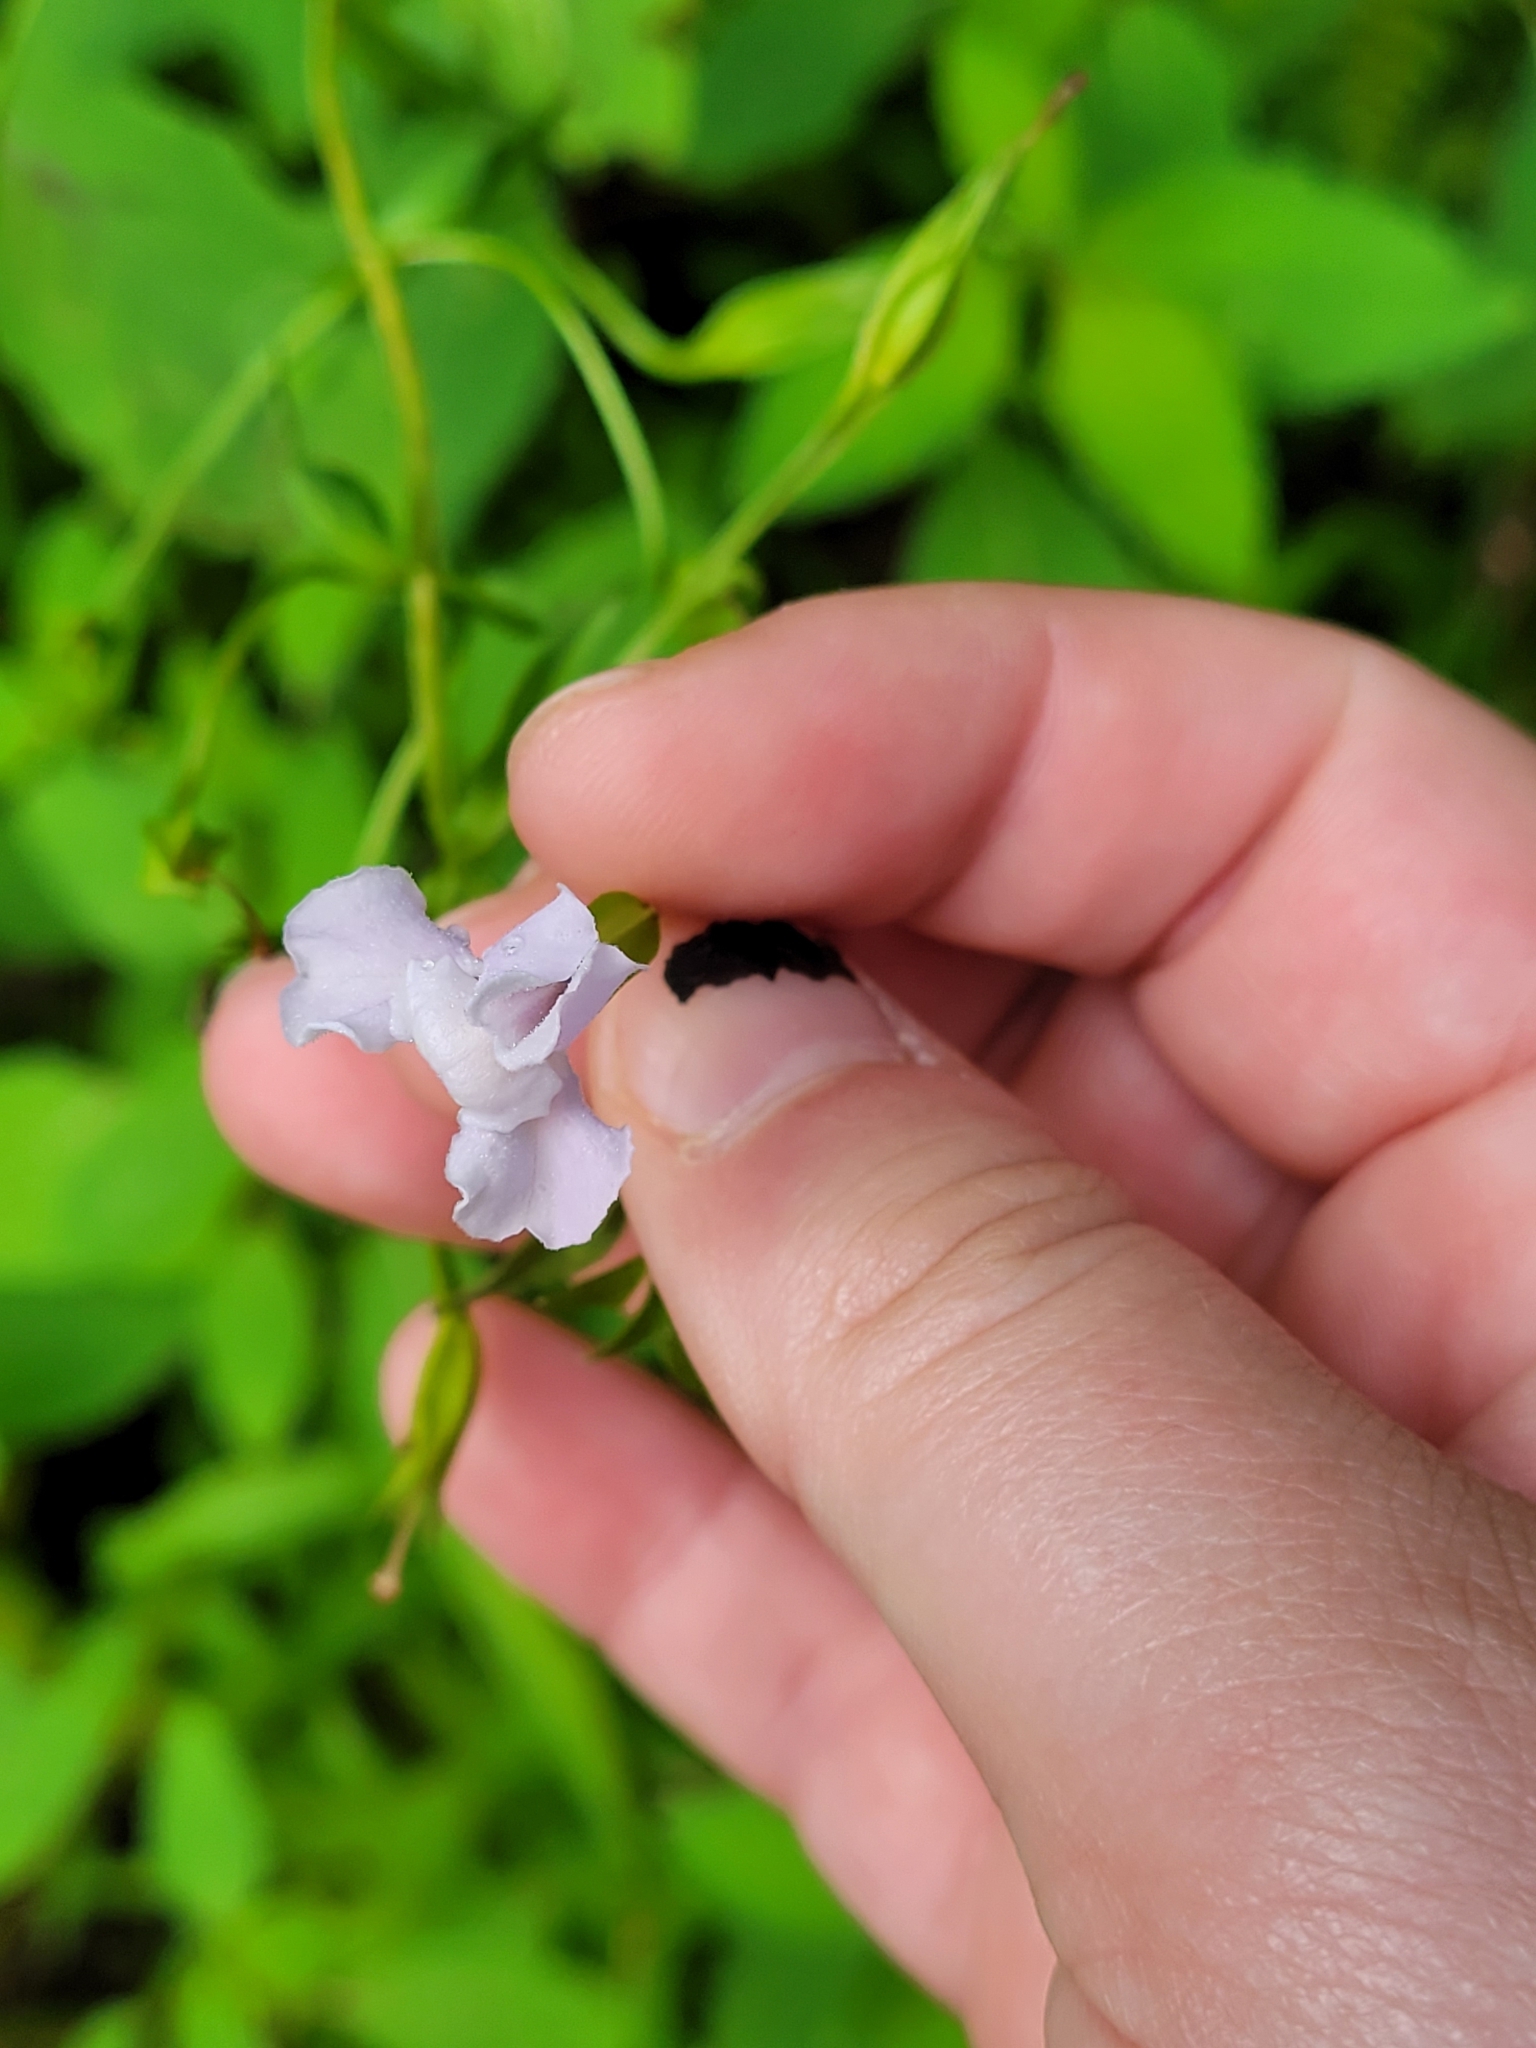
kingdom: Plantae
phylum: Tracheophyta
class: Magnoliopsida
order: Lamiales
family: Phrymaceae
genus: Mimulus
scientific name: Mimulus ringens
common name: Allegheny monkeyflower
